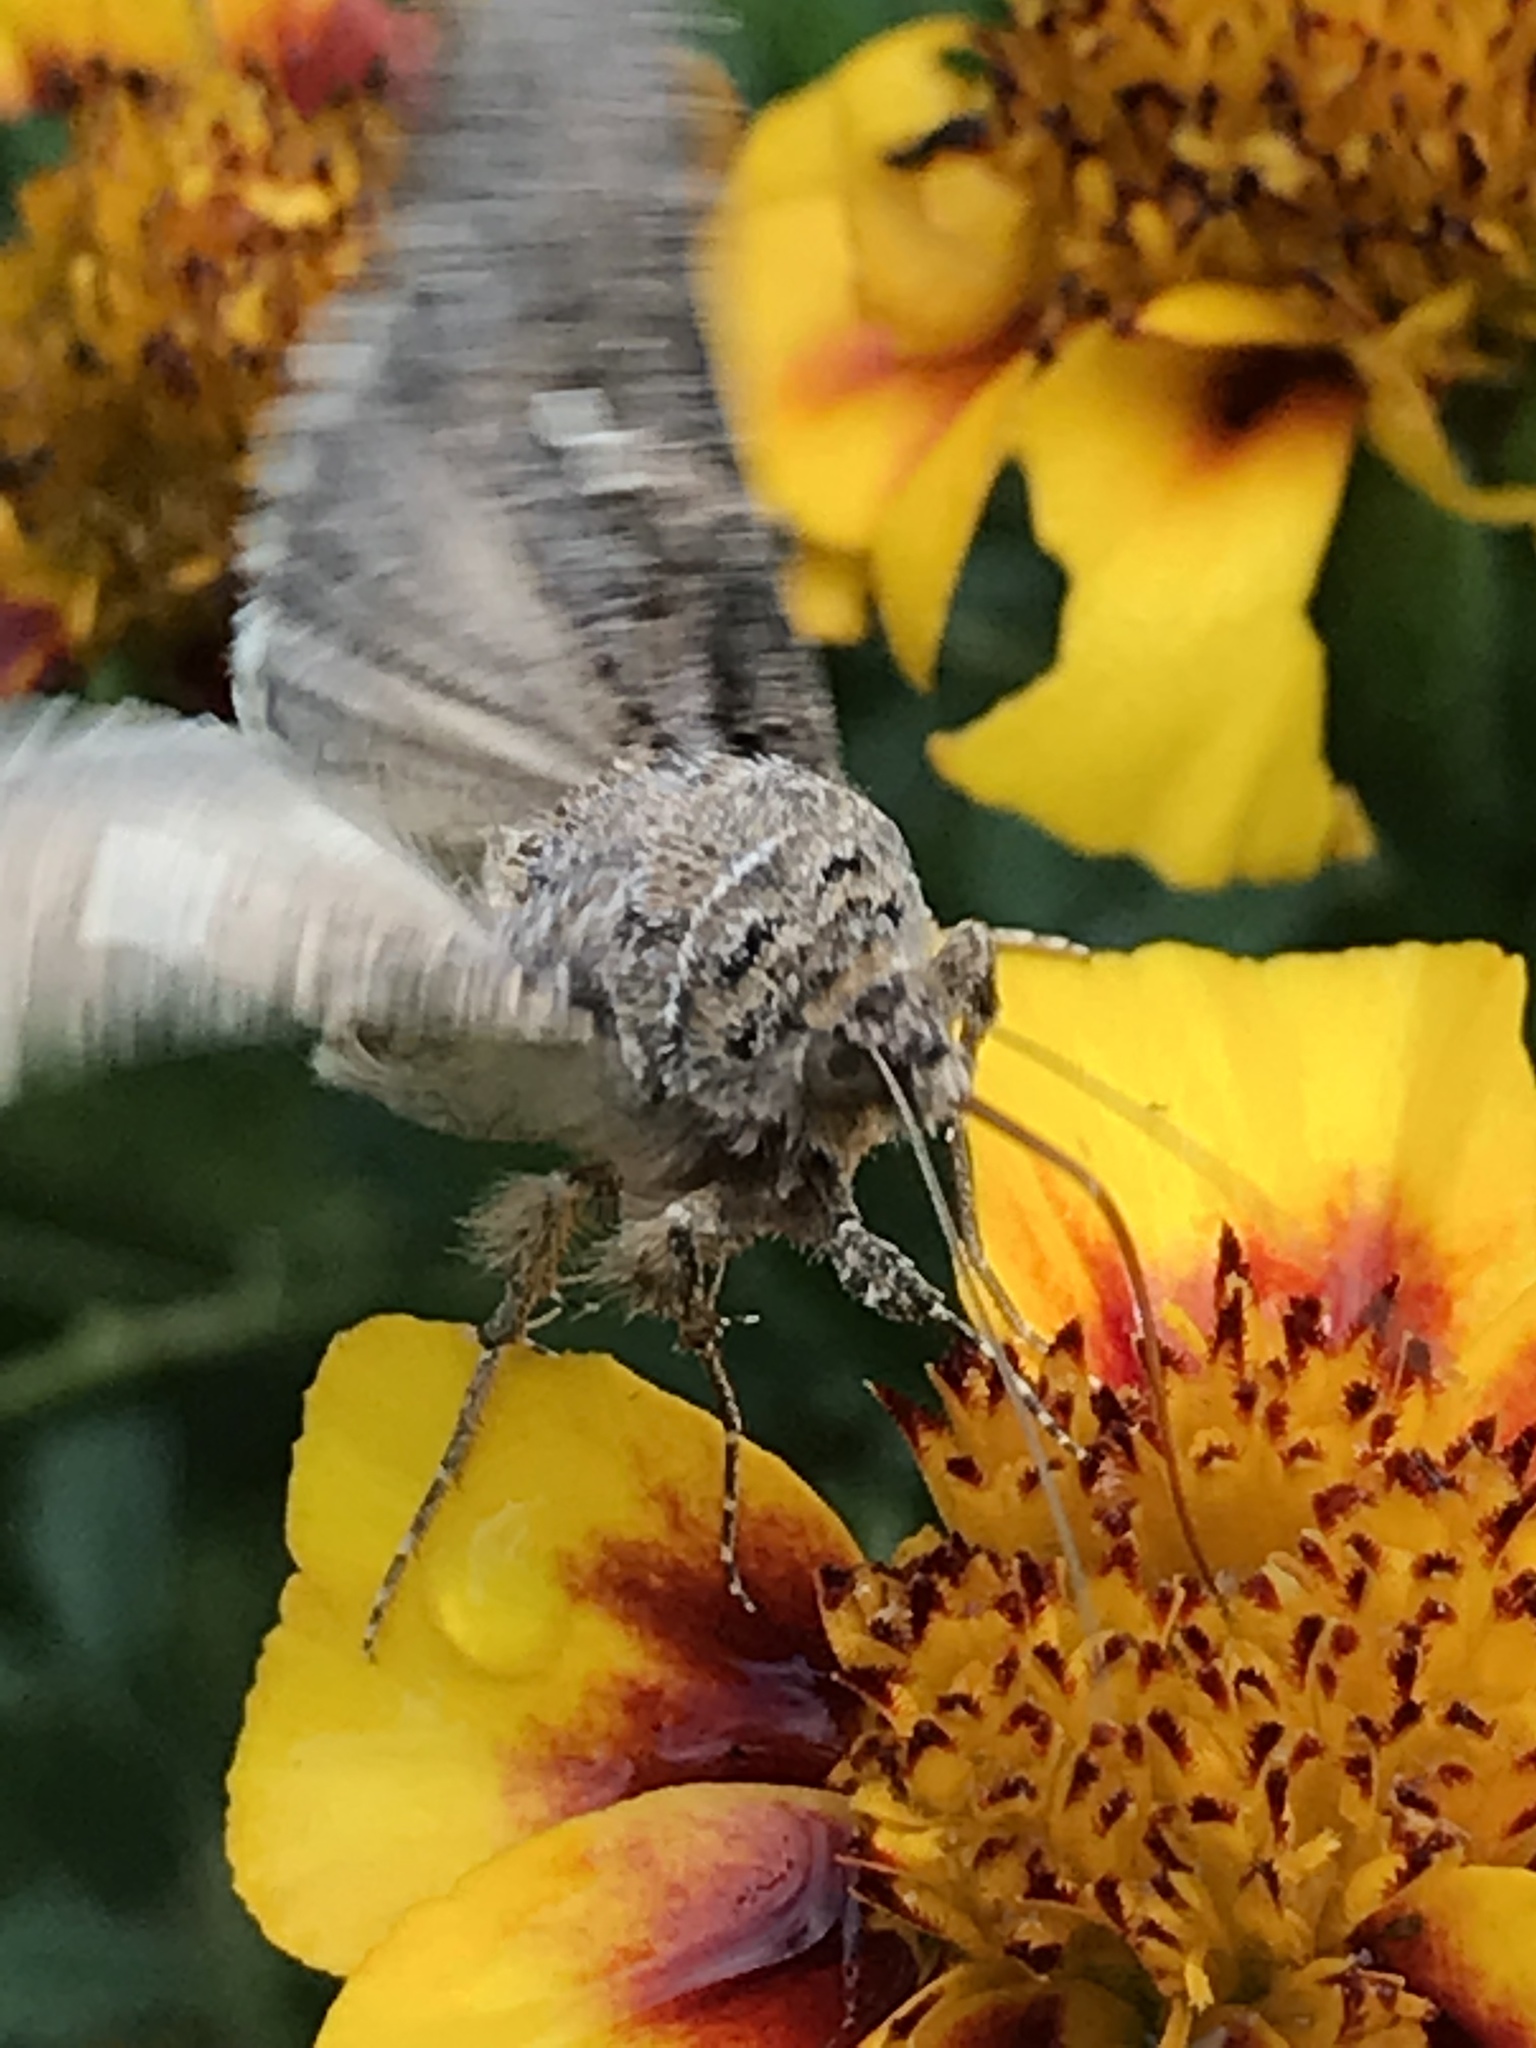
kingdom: Animalia
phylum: Arthropoda
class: Insecta
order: Lepidoptera
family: Noctuidae
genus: Trichoplusia
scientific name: Trichoplusia ni
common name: Ni moth
